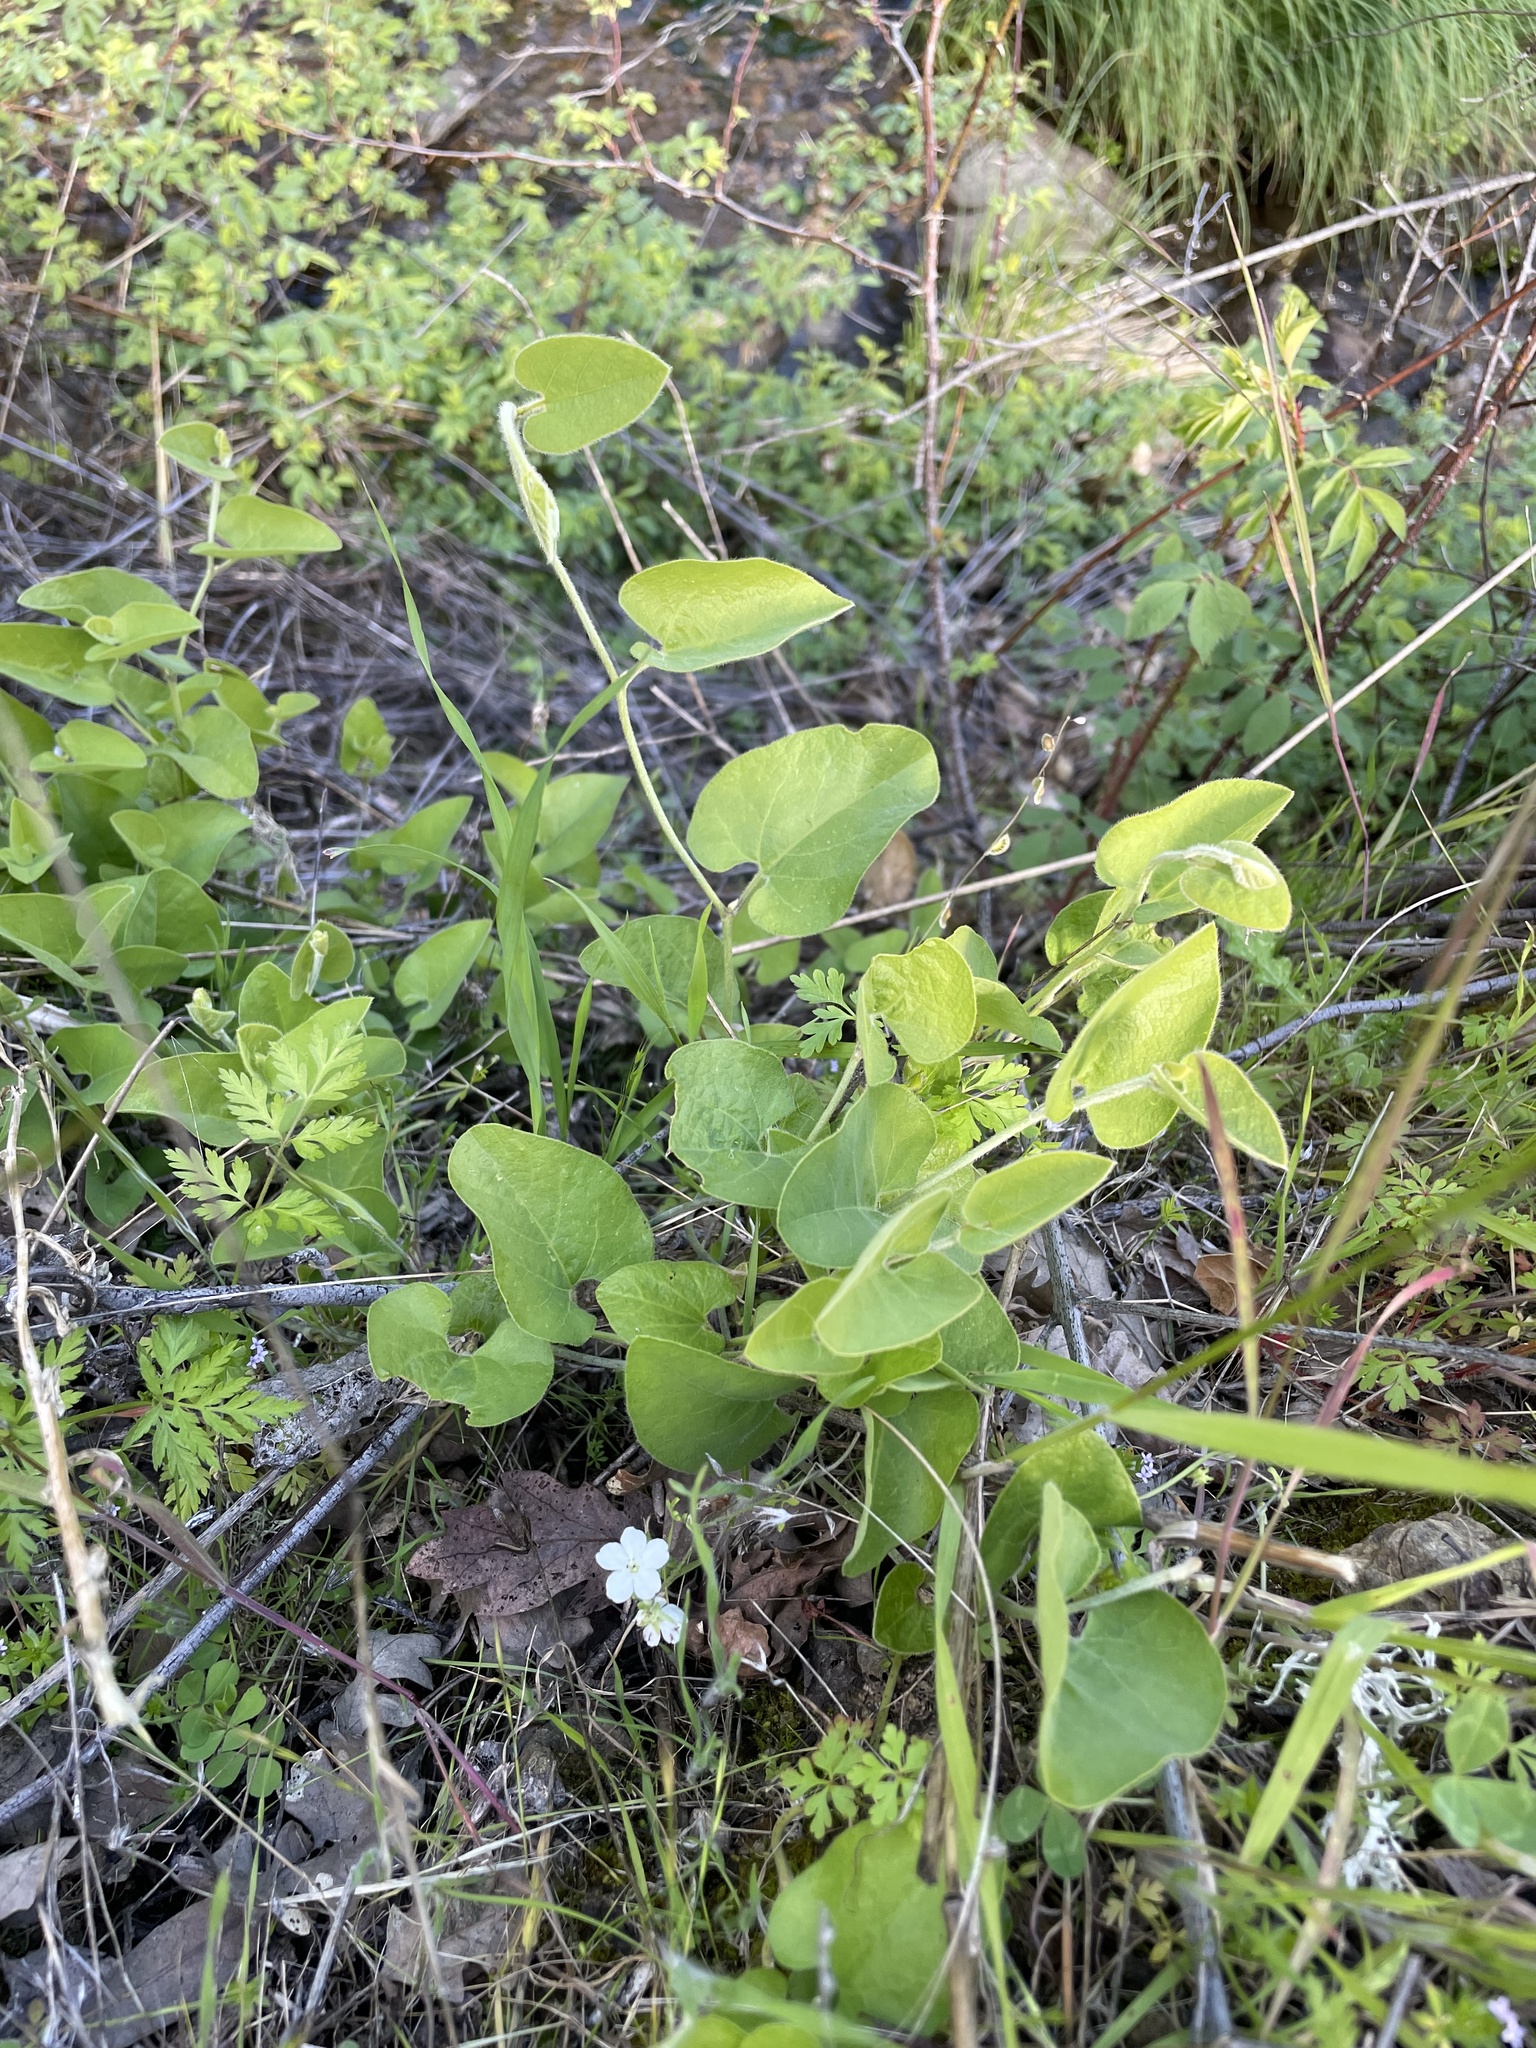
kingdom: Plantae
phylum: Tracheophyta
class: Magnoliopsida
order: Piperales
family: Aristolochiaceae
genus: Isotrema
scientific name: Isotrema californicum
